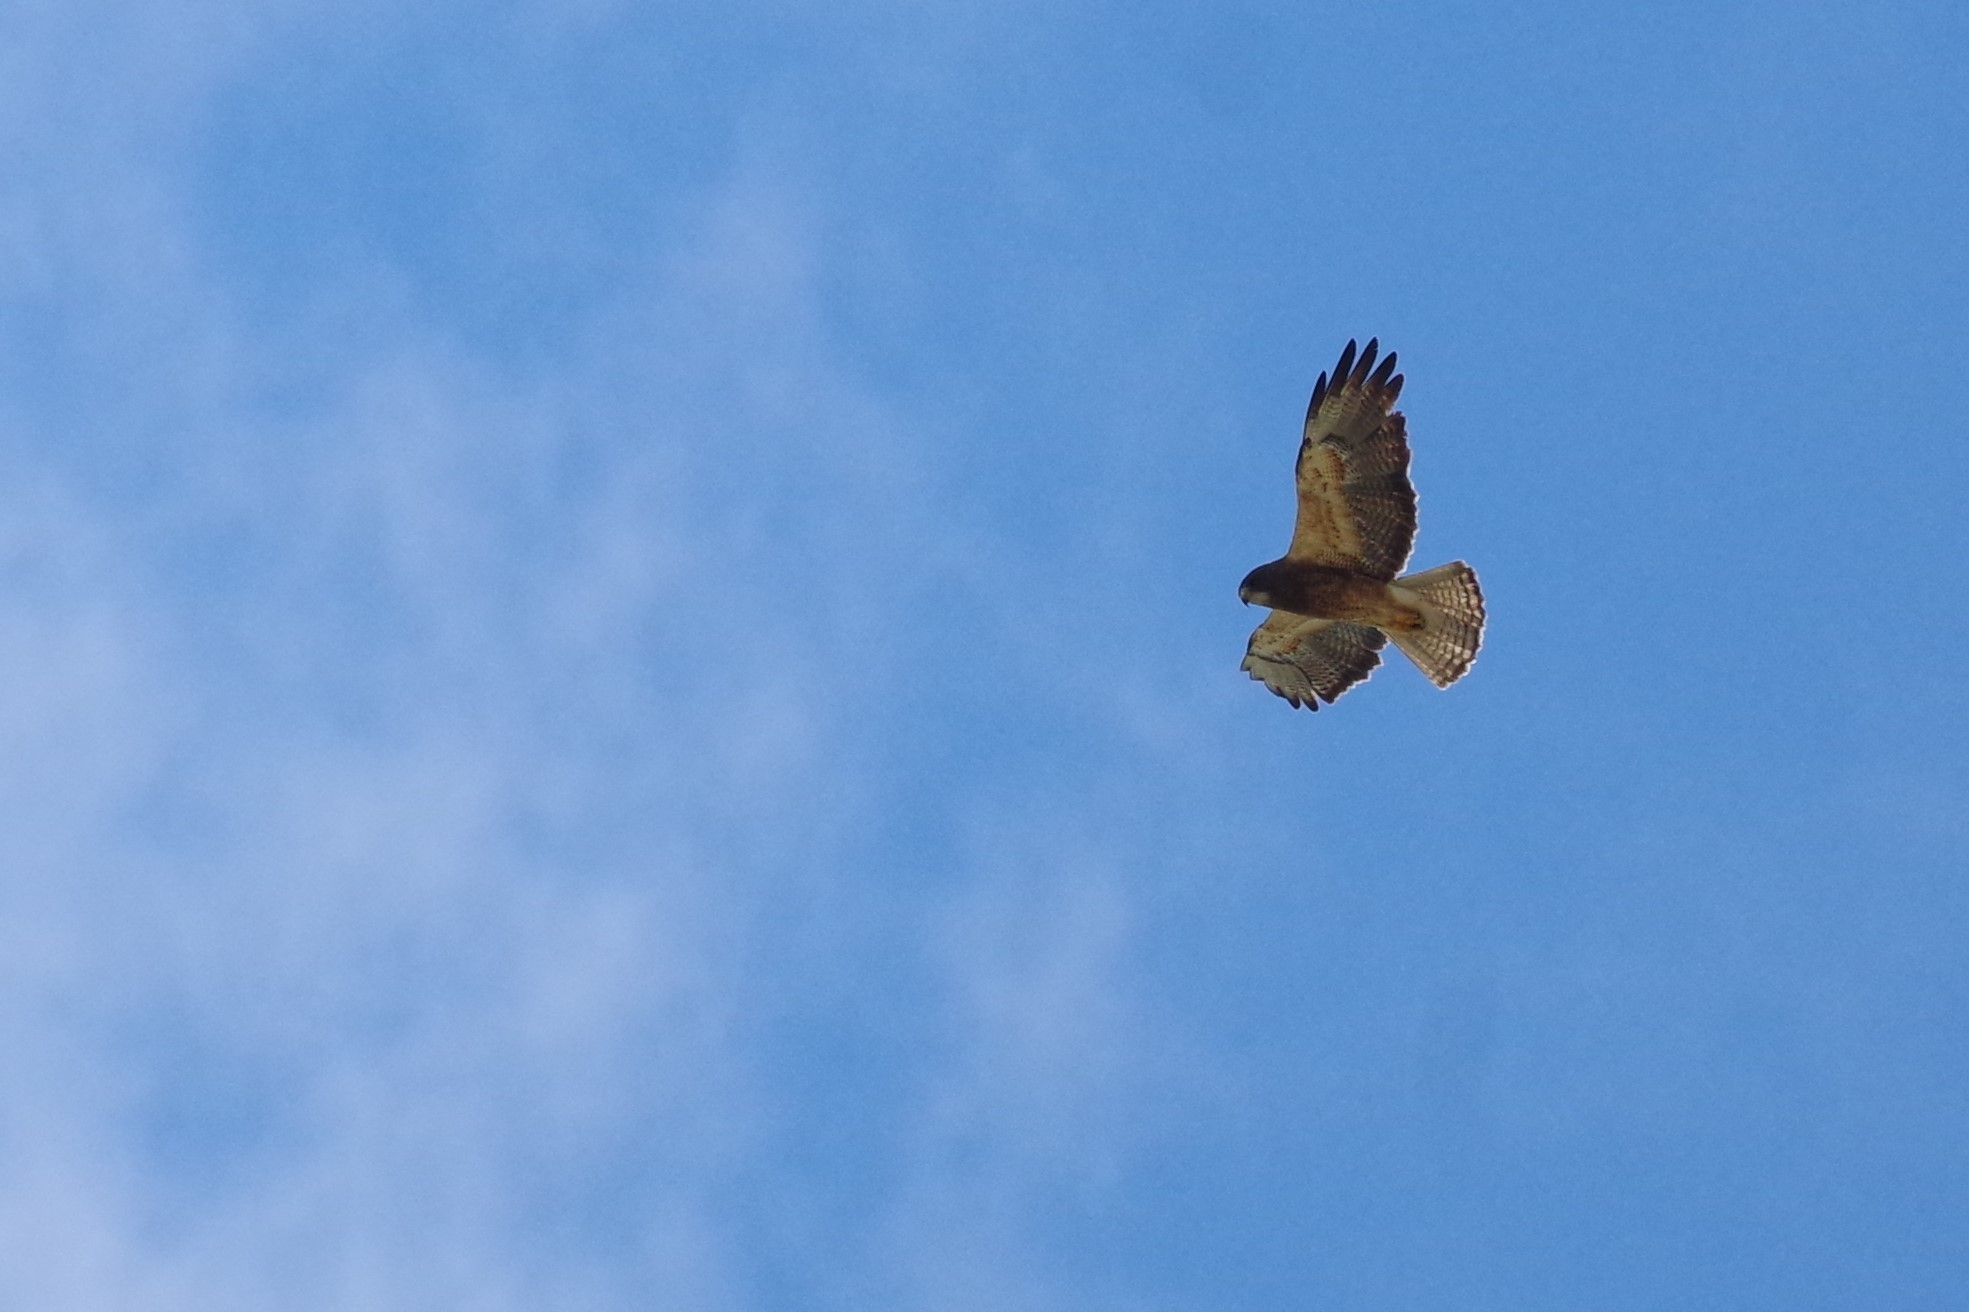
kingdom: Animalia
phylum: Chordata
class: Aves
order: Accipitriformes
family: Accipitridae
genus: Buteo
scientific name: Buteo swainsoni
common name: Swainson's hawk
